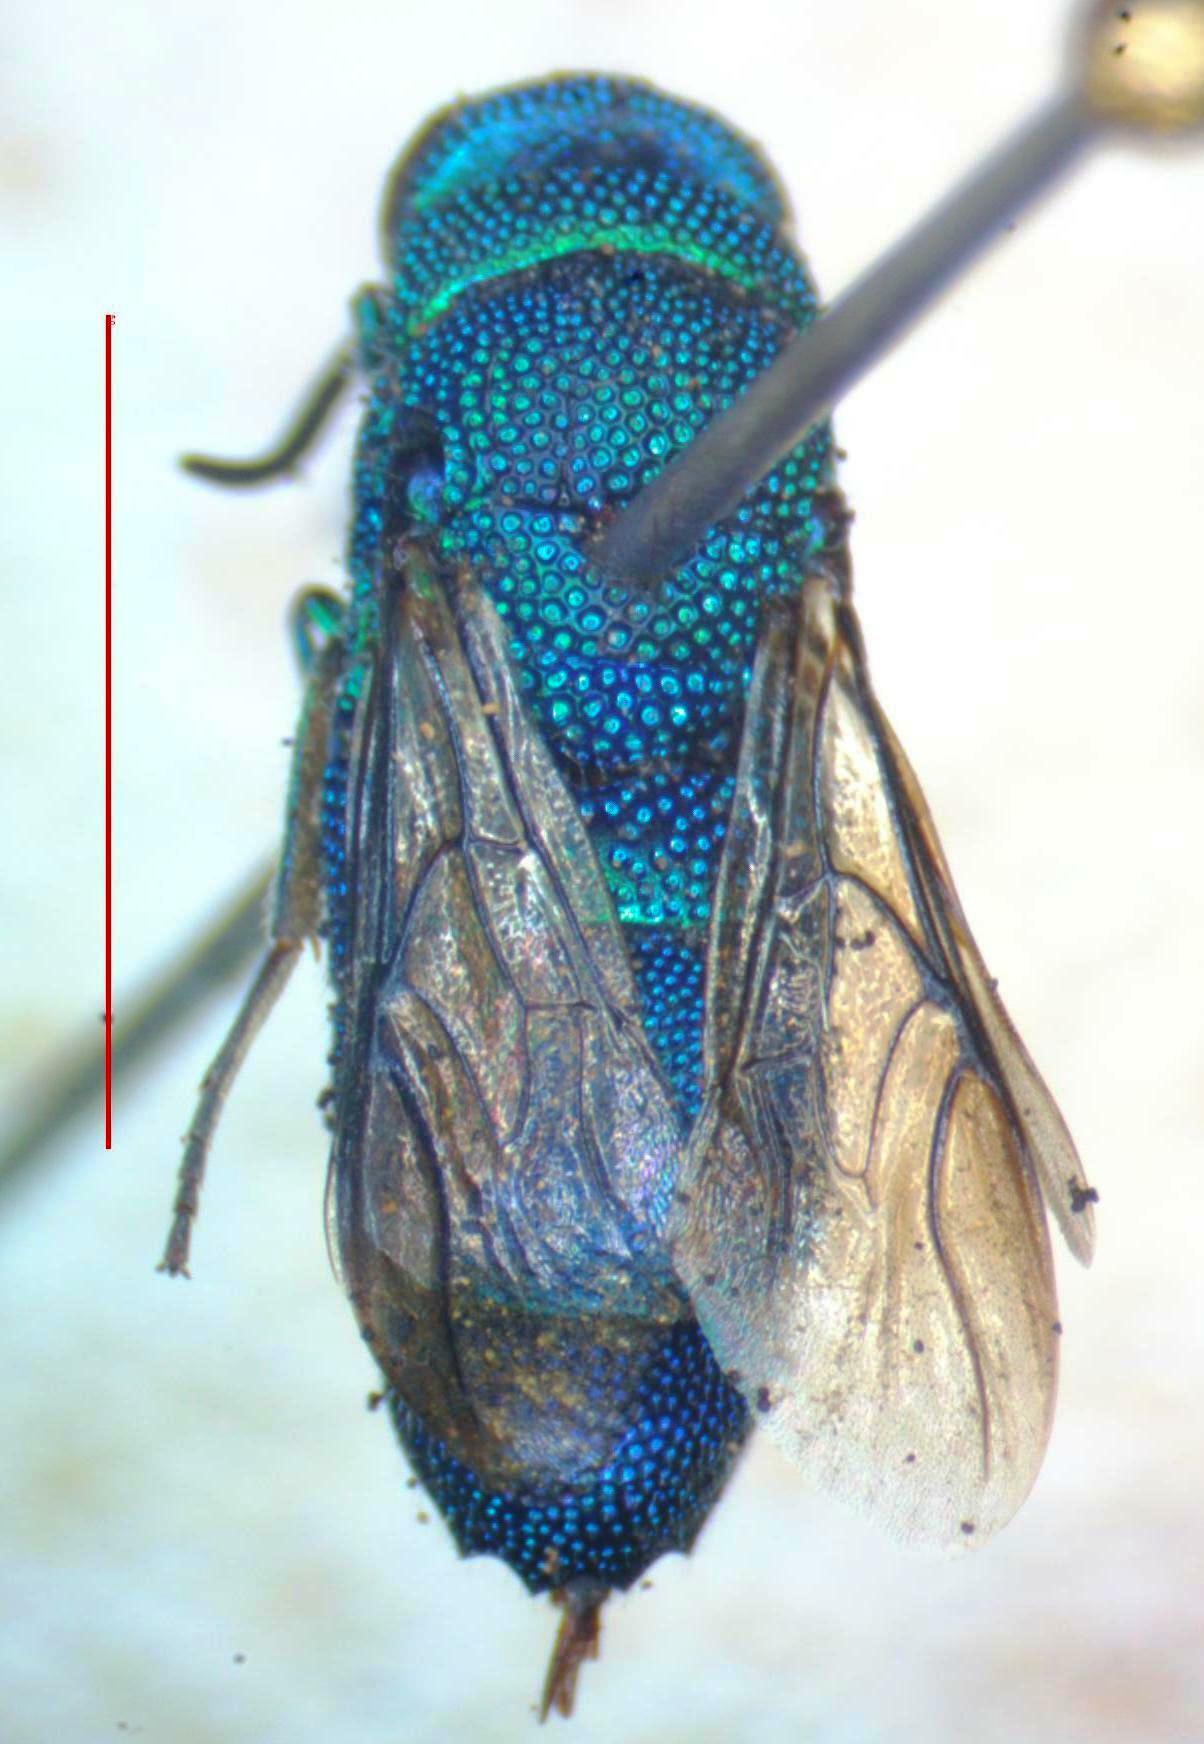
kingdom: Animalia
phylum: Arthropoda
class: Insecta
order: Hymenoptera
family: Chrysididae
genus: Neochrysis
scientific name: Neochrysis
